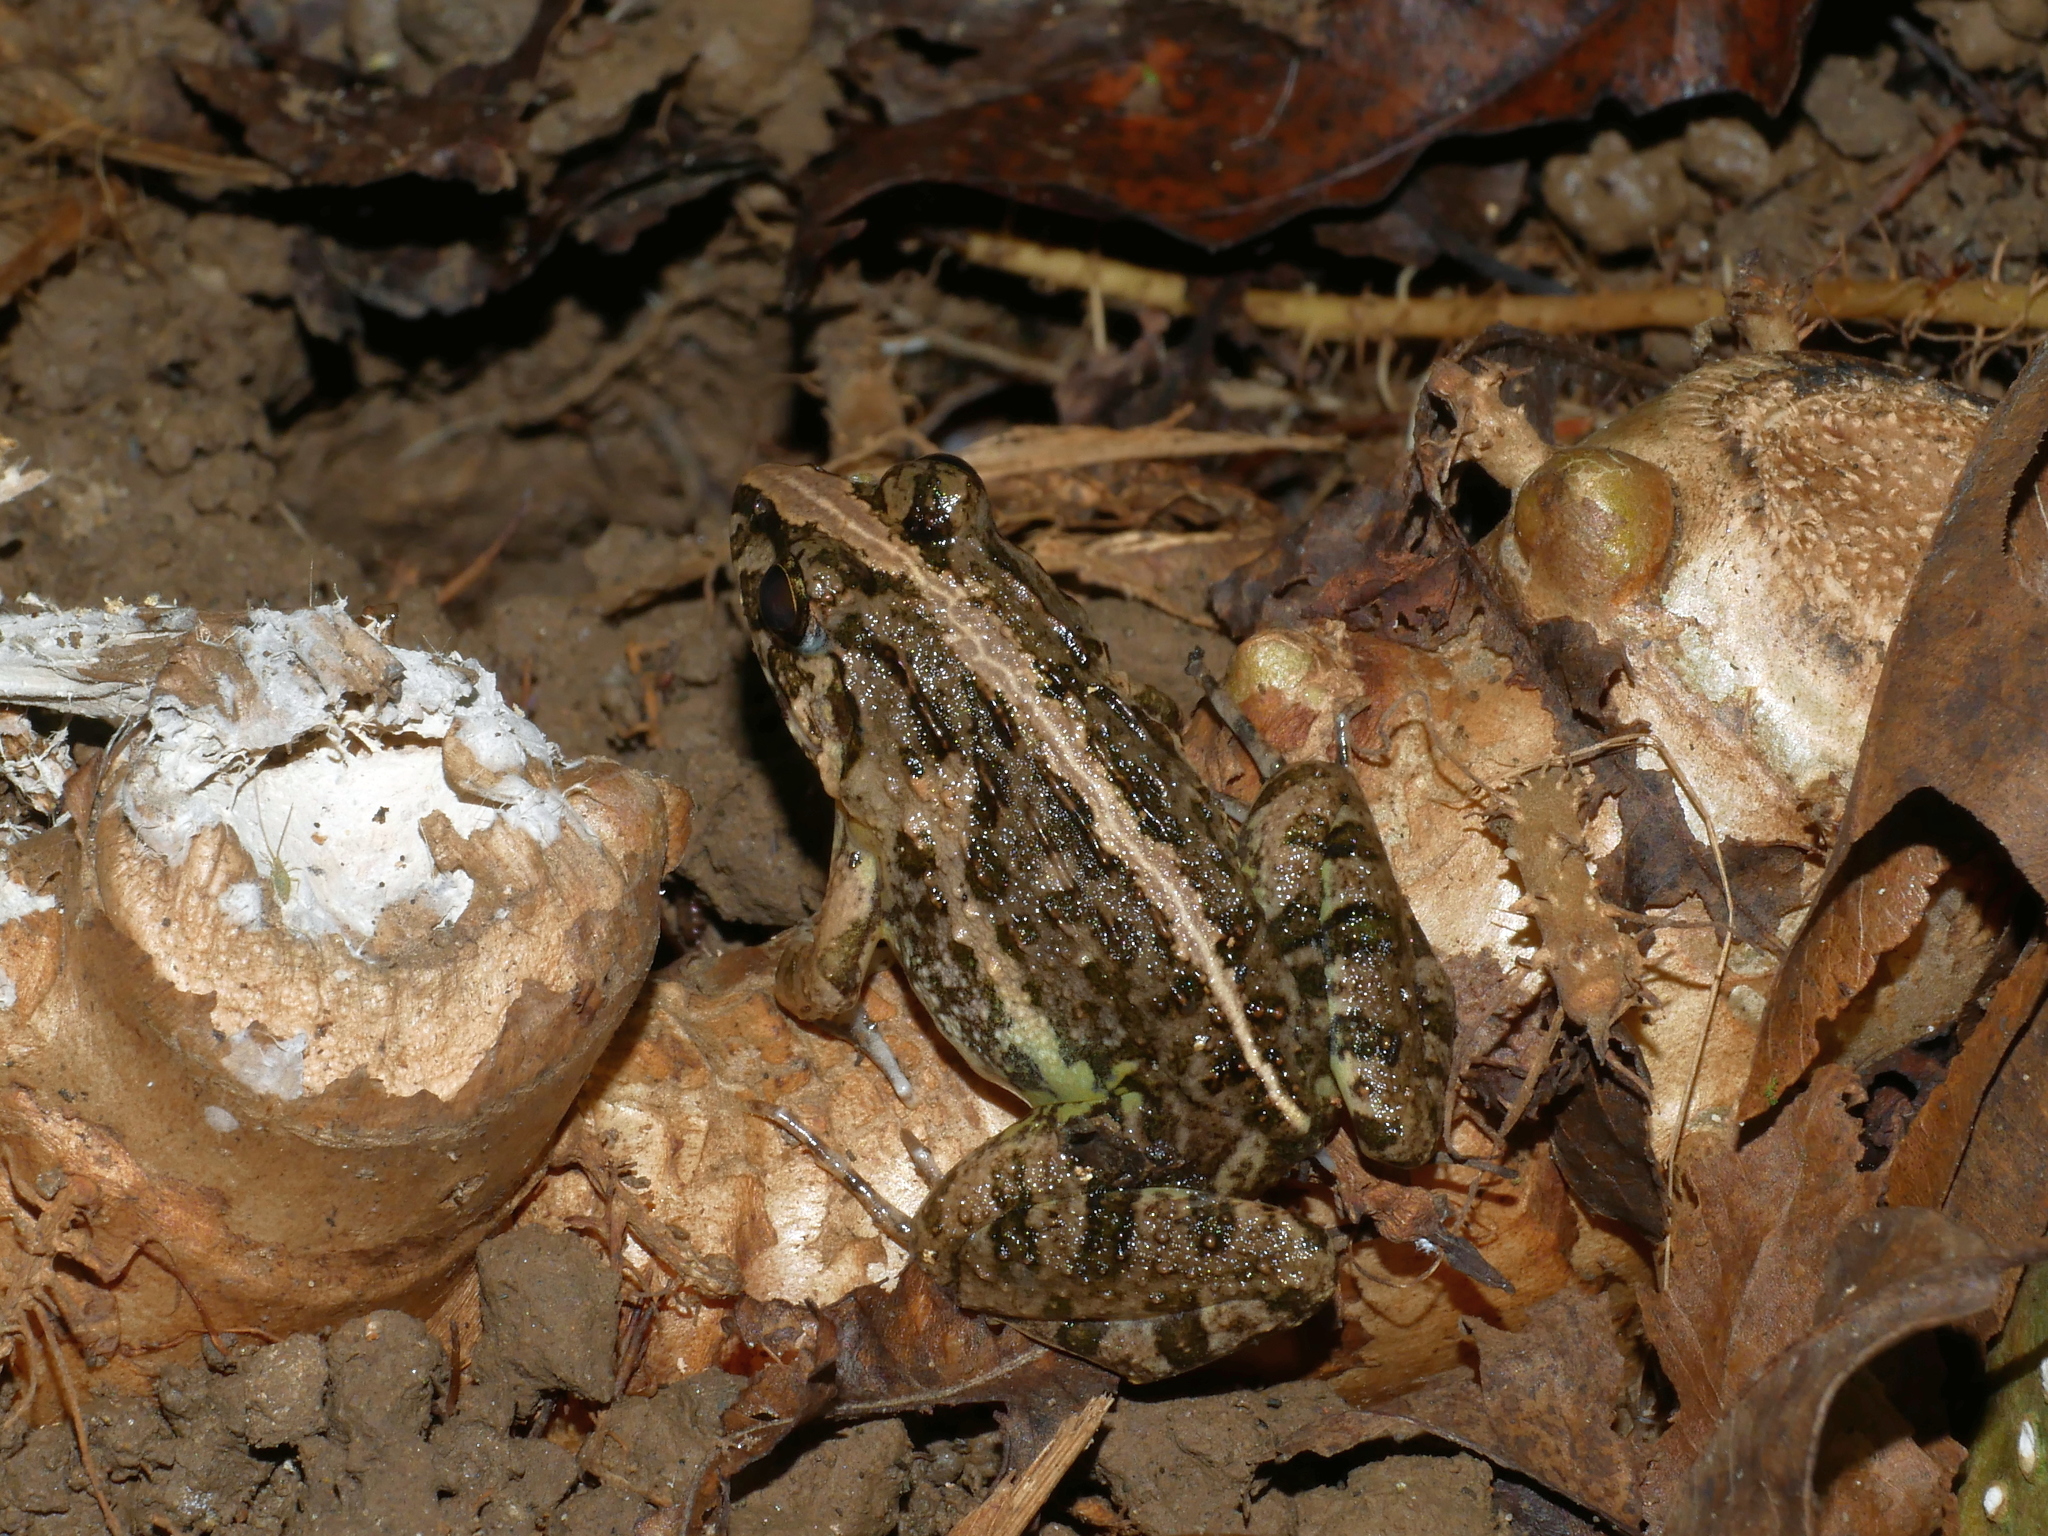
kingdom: Animalia
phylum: Chordata
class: Amphibia
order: Anura
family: Dicroglossidae
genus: Fejervarya
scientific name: Fejervarya limnocharis
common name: Asian grass frog/common pond frog/field frog/grass frog/indian rice frog
